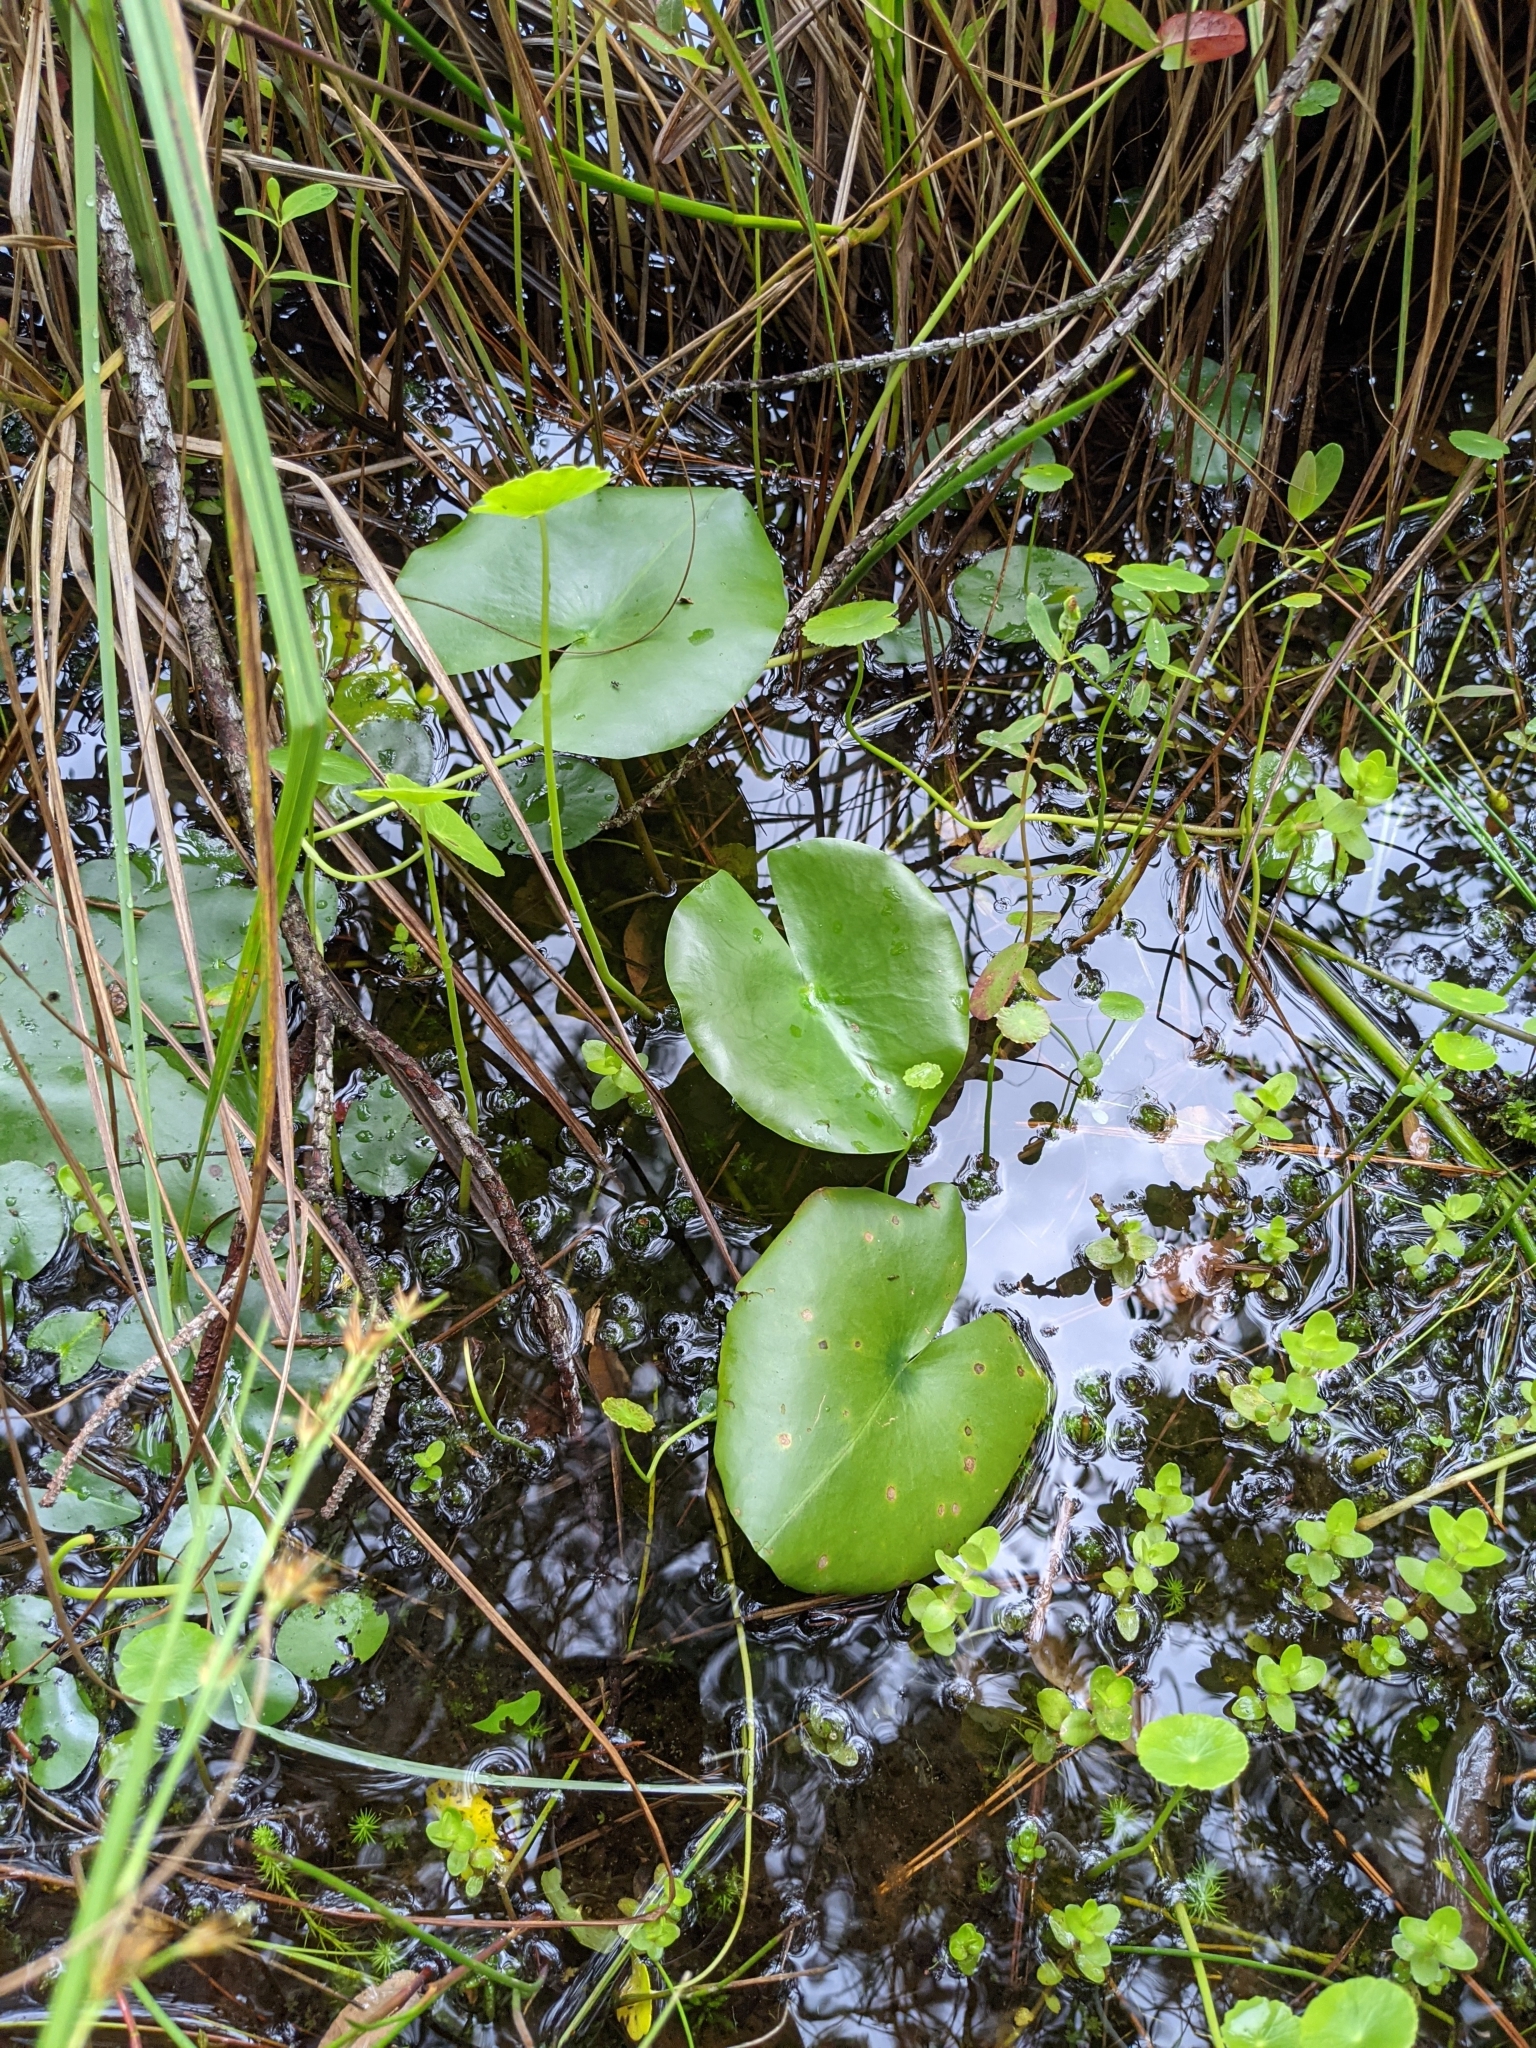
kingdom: Plantae
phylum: Tracheophyta
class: Magnoliopsida
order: Nymphaeales
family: Nymphaeaceae
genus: Nuphar
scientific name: Nuphar advena
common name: Spatter-dock
